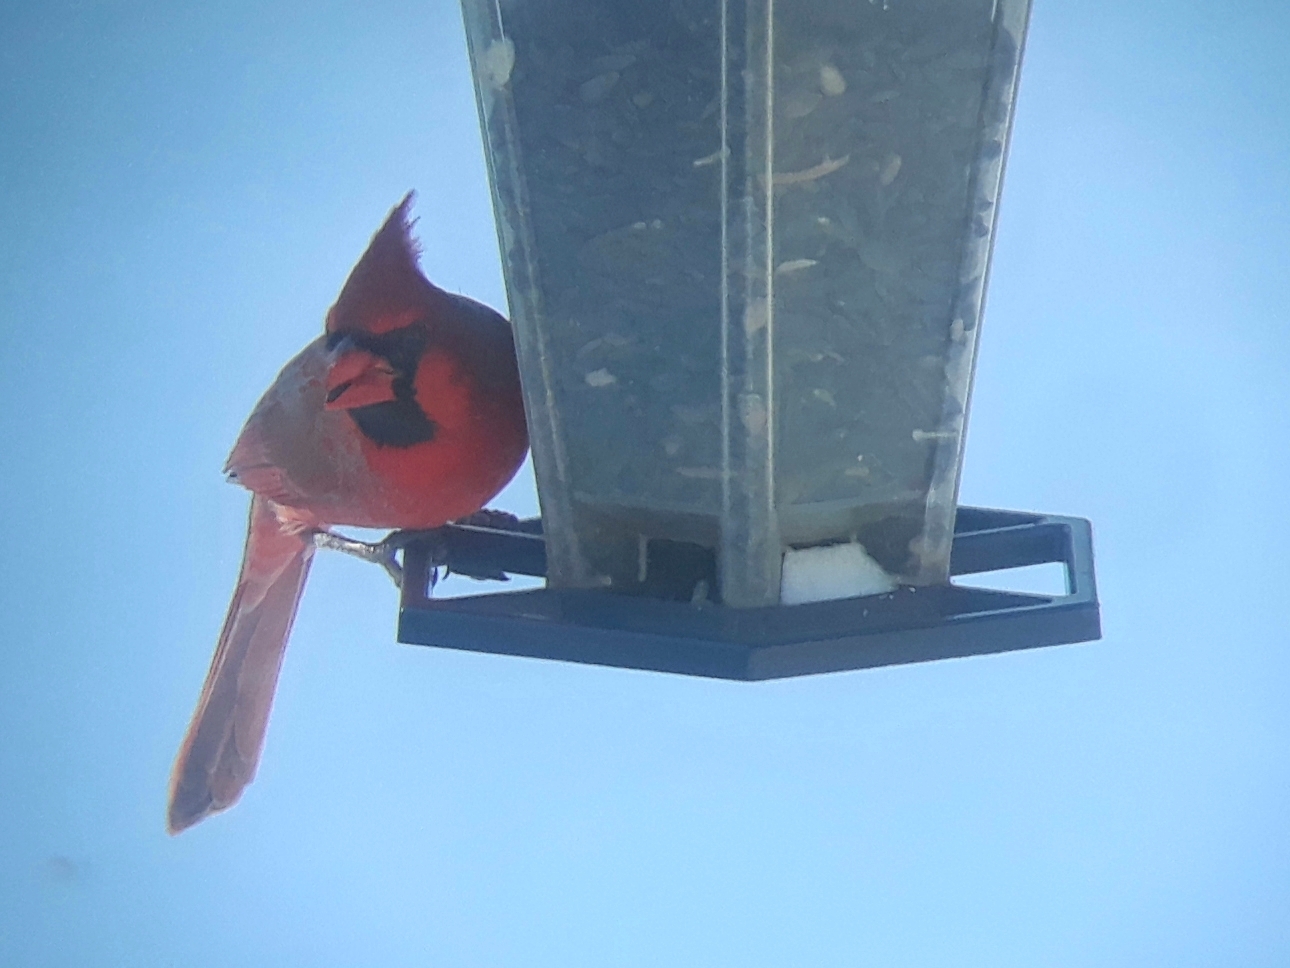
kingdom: Animalia
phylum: Chordata
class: Aves
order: Passeriformes
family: Cardinalidae
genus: Cardinalis
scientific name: Cardinalis cardinalis
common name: Northern cardinal
